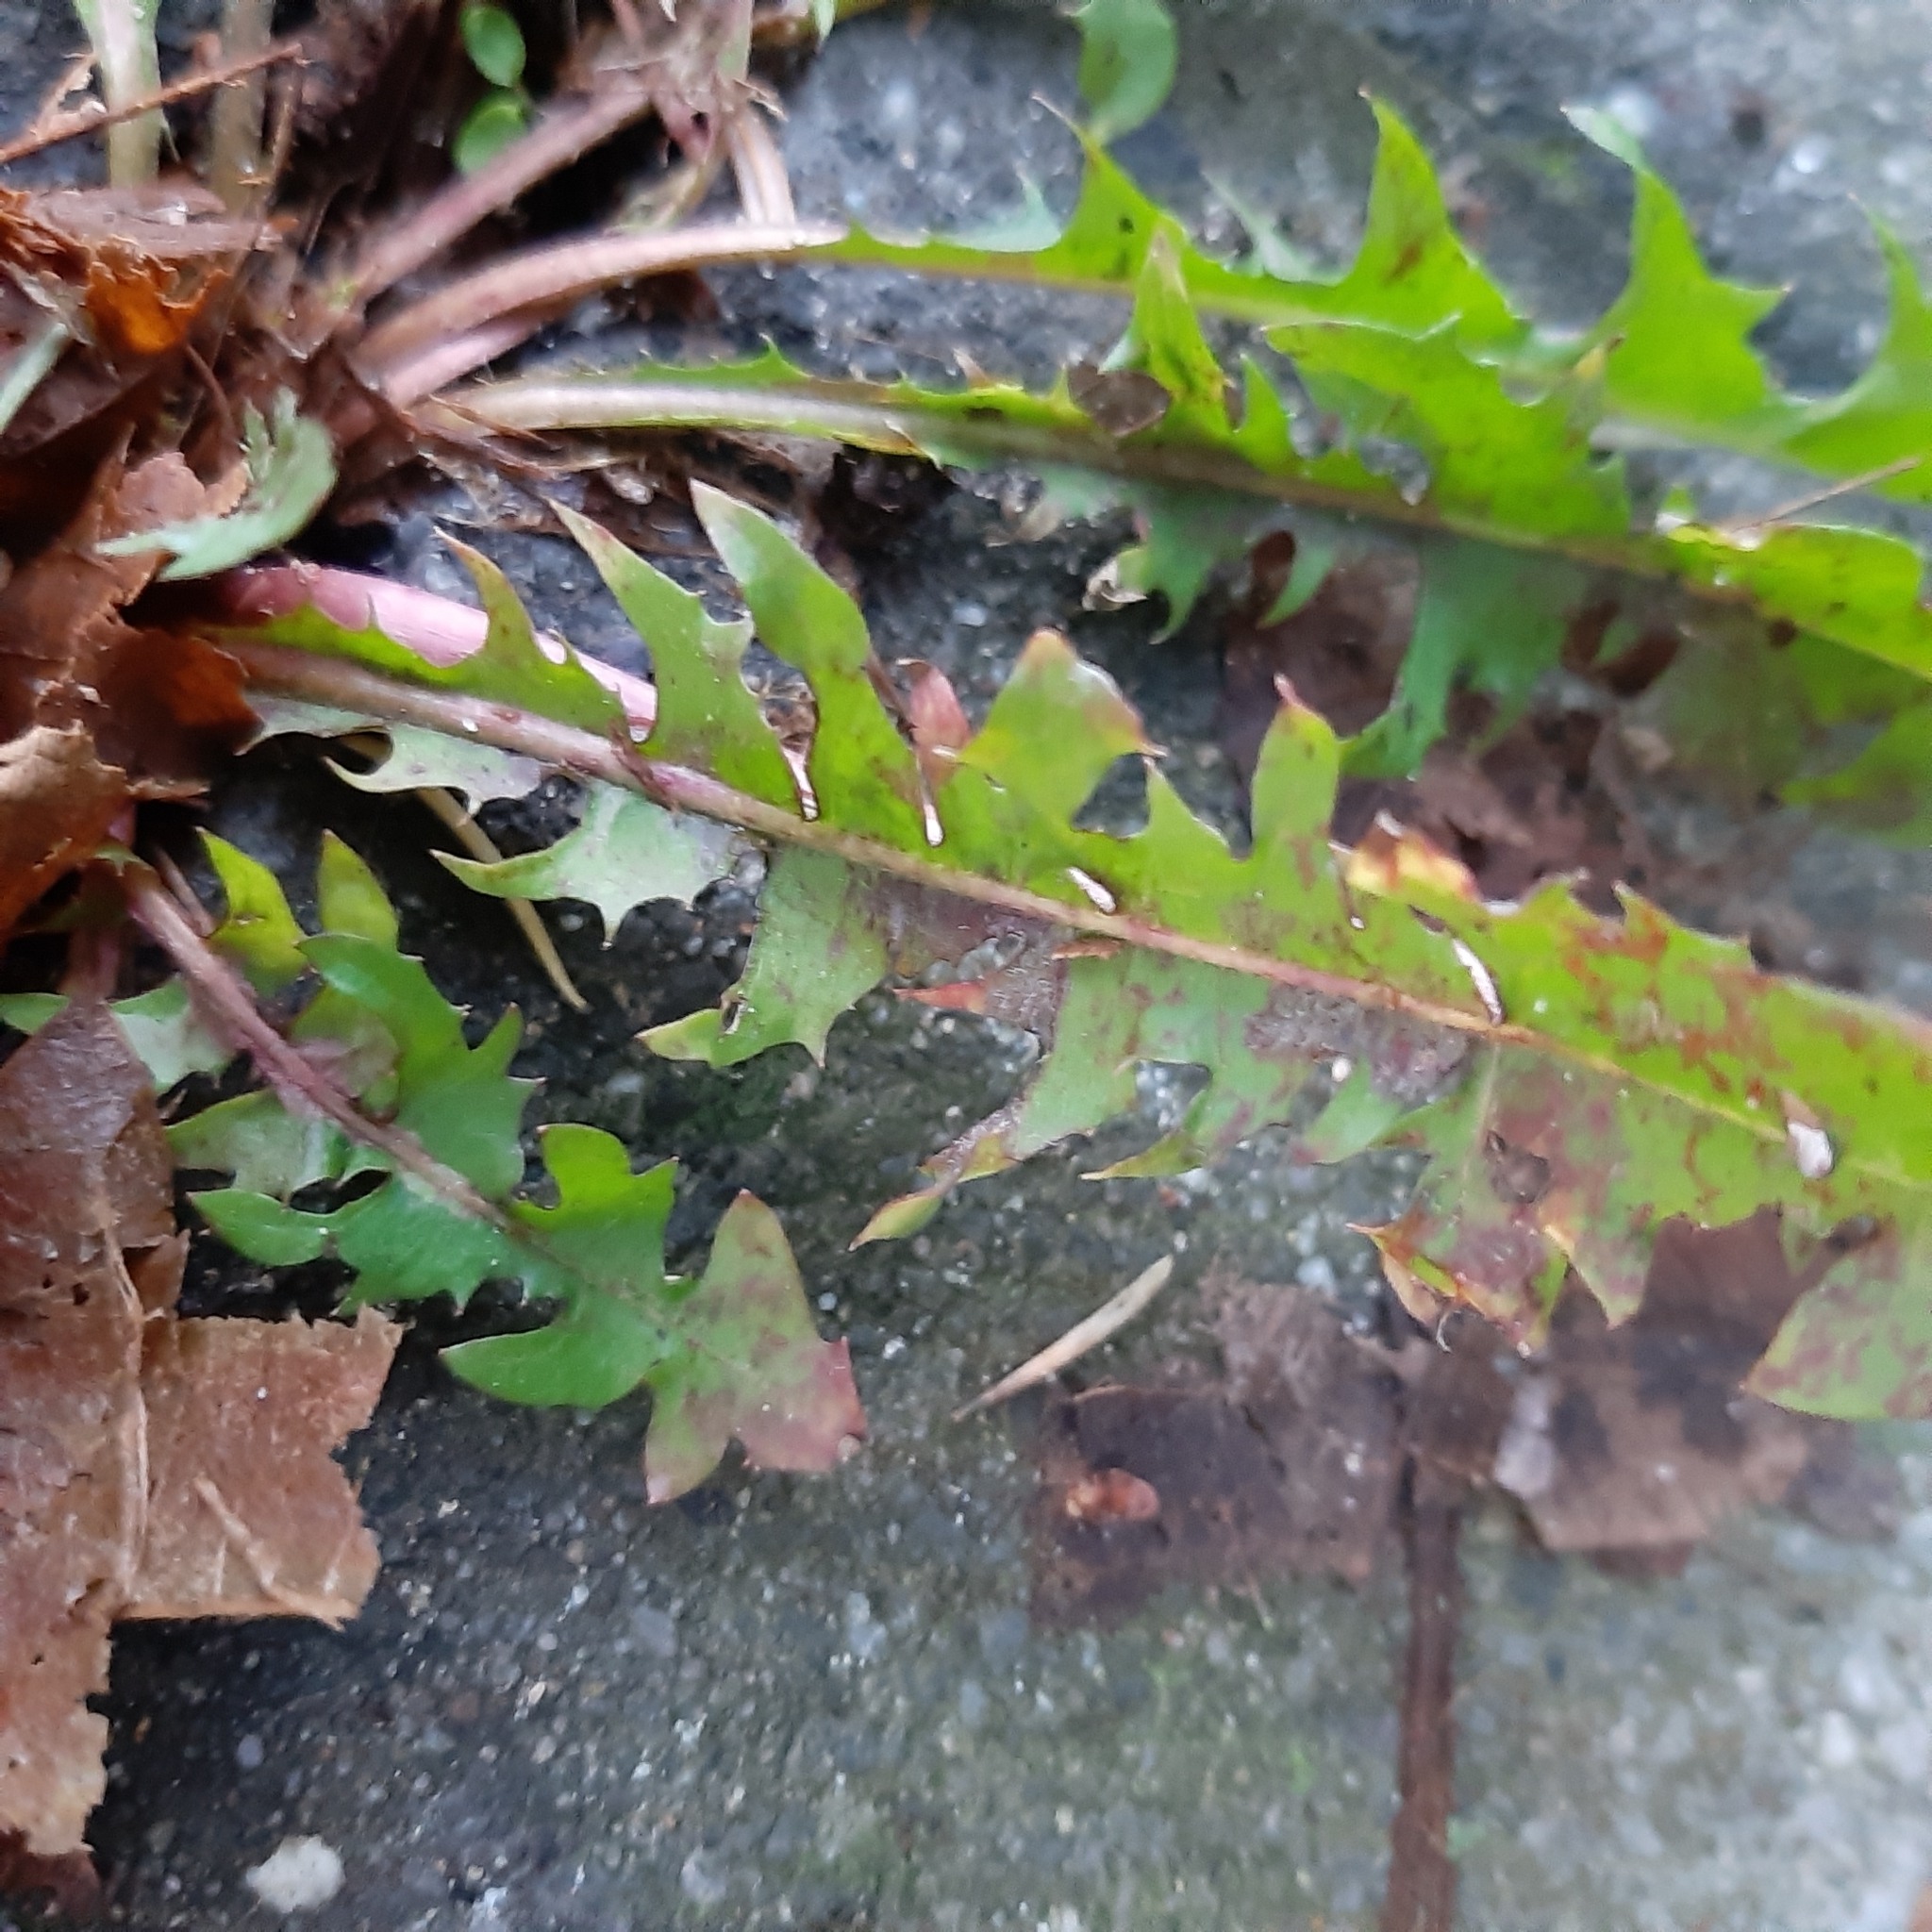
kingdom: Plantae
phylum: Tracheophyta
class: Magnoliopsida
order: Asterales
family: Asteraceae
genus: Taraxacum
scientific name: Taraxacum officinale
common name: Common dandelion
